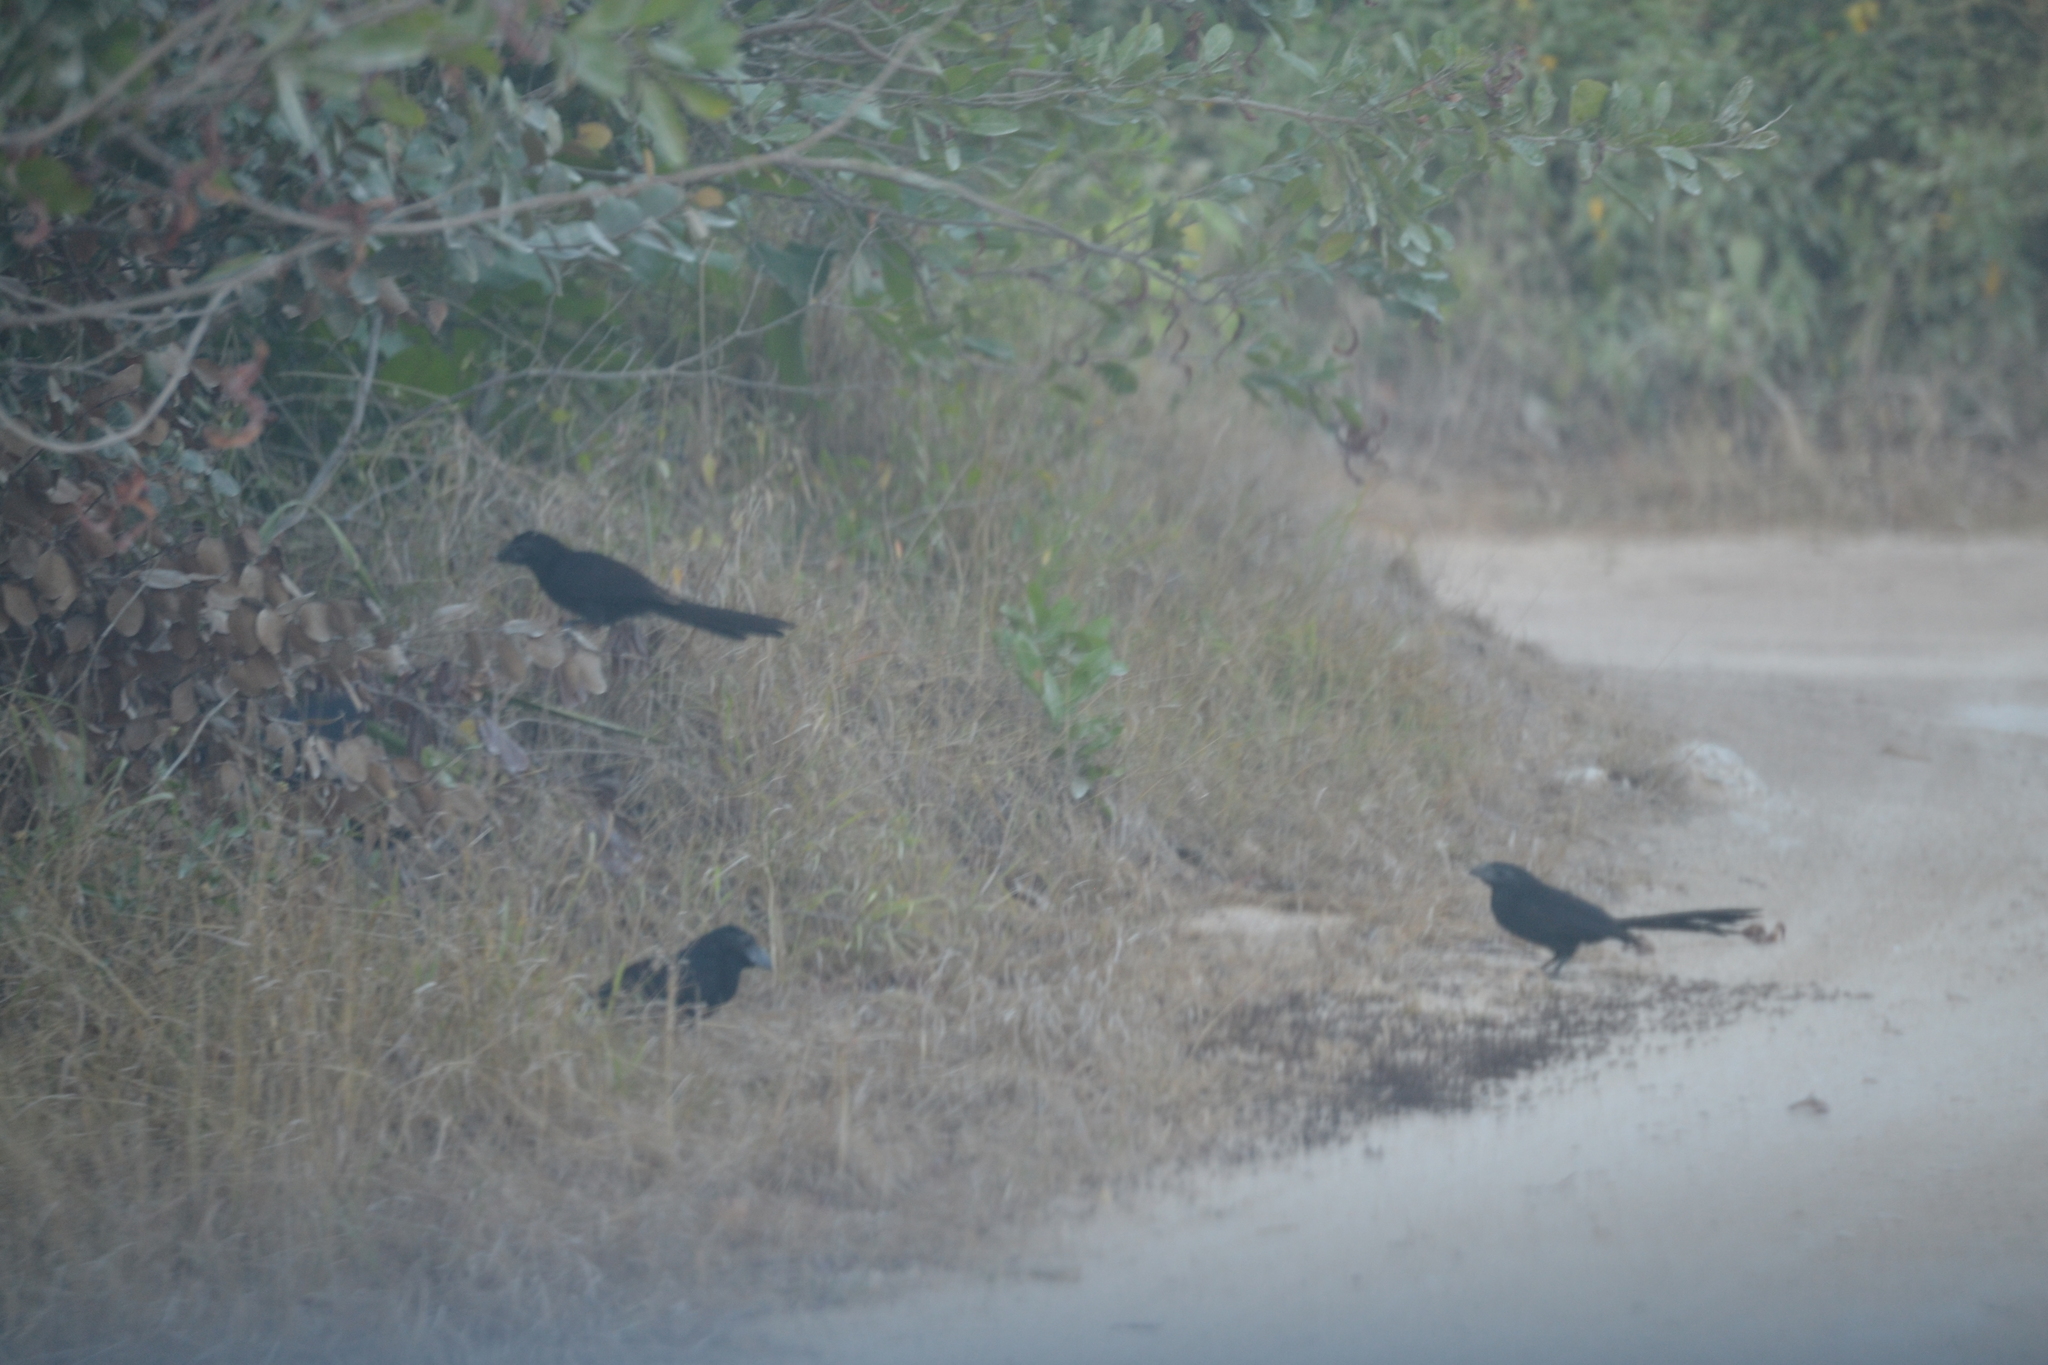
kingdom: Animalia
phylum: Chordata
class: Aves
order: Cuculiformes
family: Cuculidae
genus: Crotophaga
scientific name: Crotophaga sulcirostris
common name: Groove-billed ani
